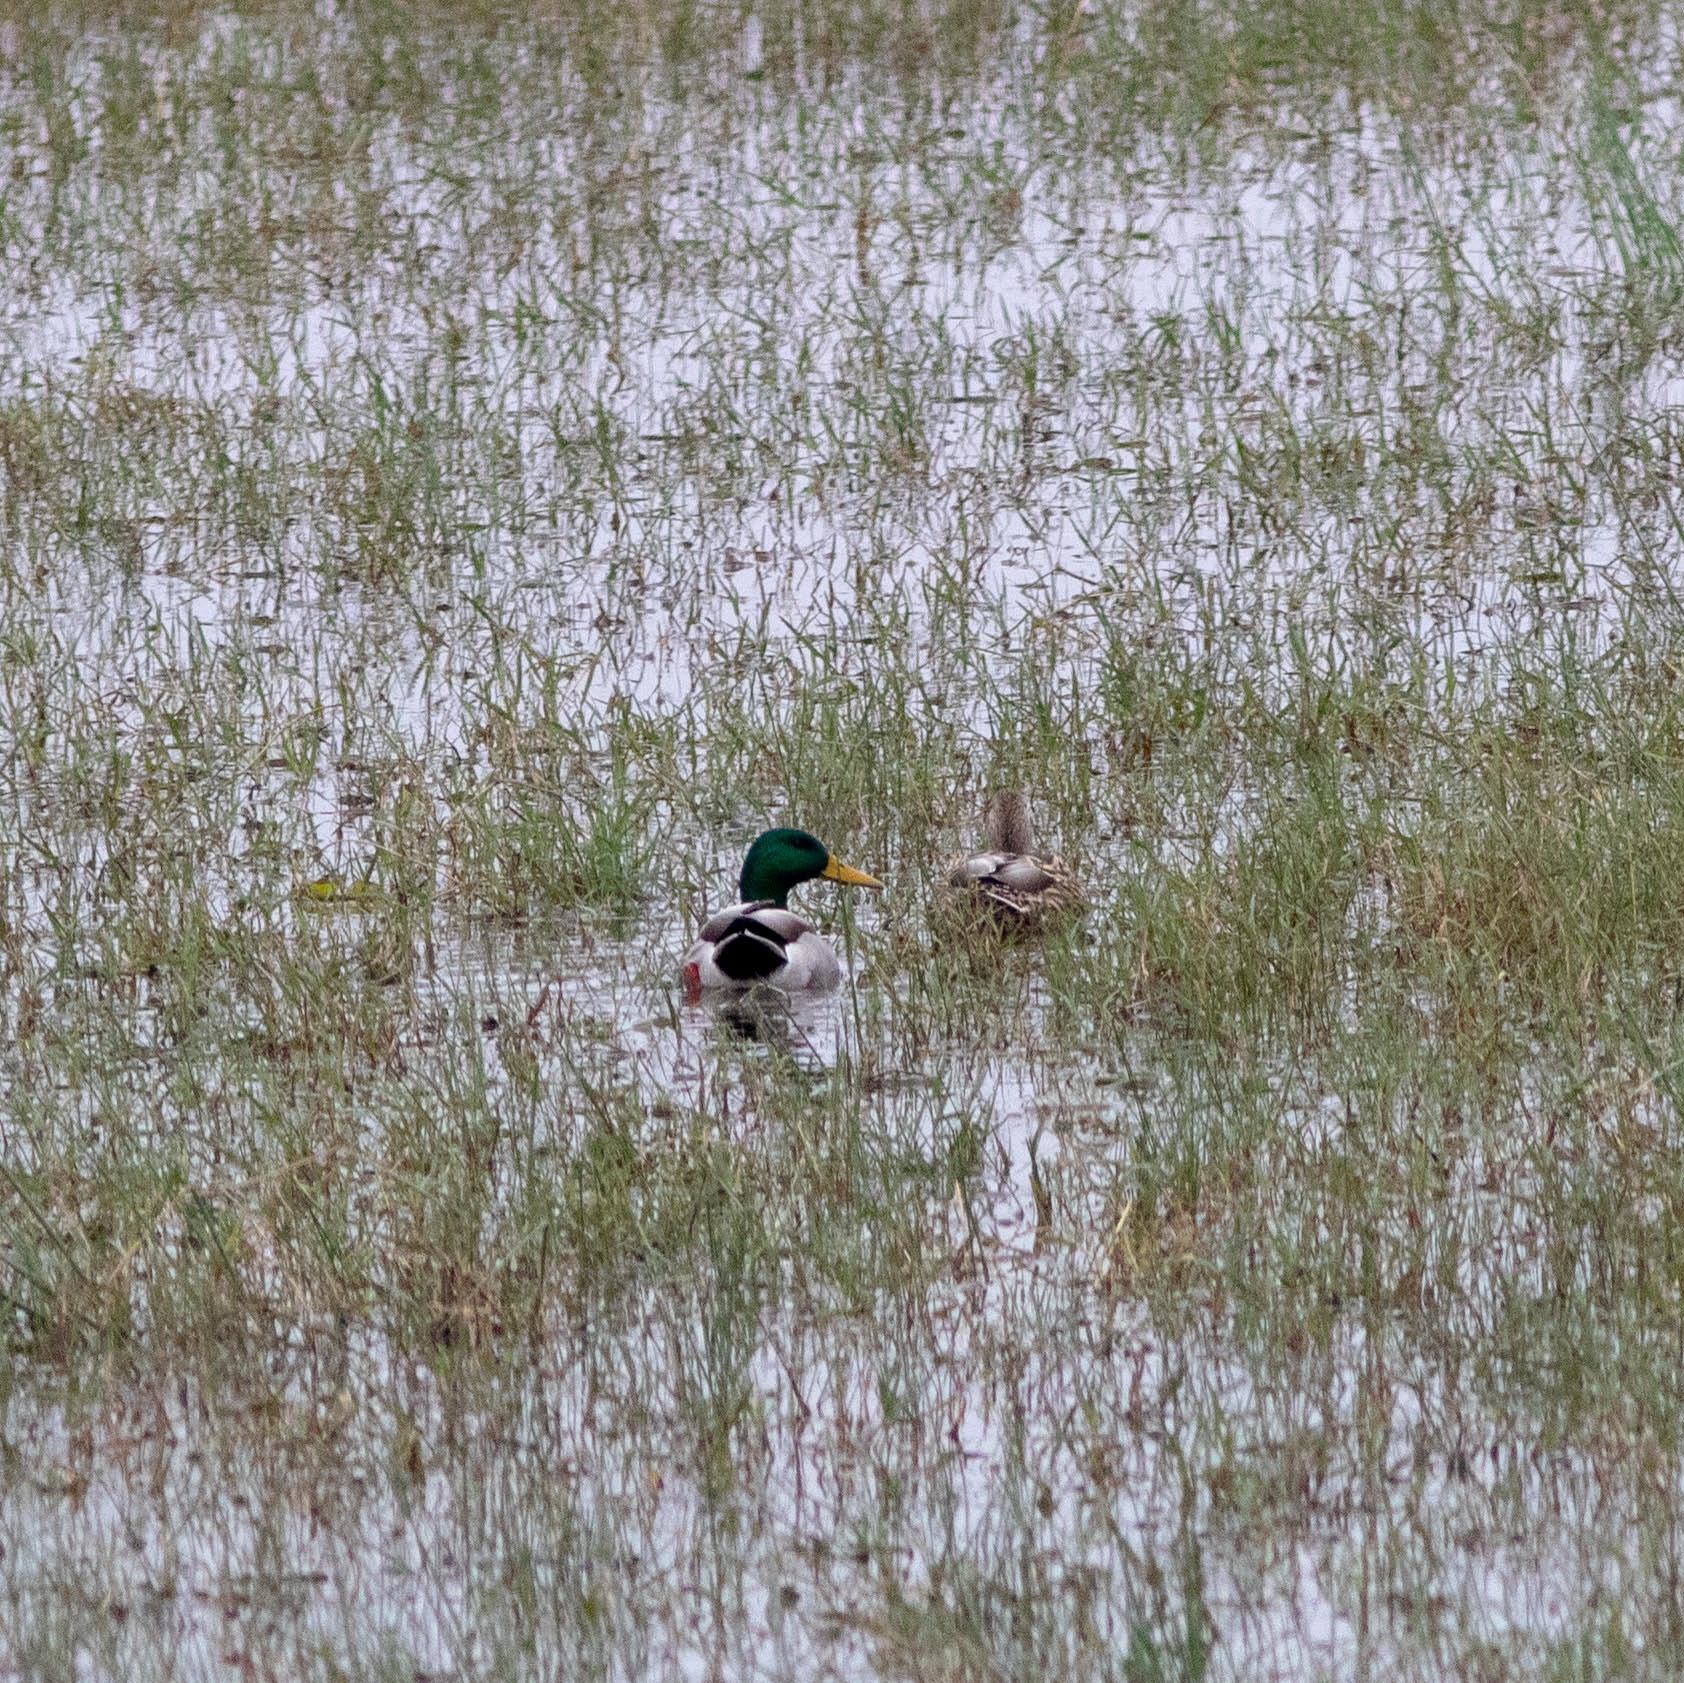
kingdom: Animalia
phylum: Chordata
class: Aves
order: Anseriformes
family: Anatidae
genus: Anas
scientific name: Anas platyrhynchos
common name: Mallard
